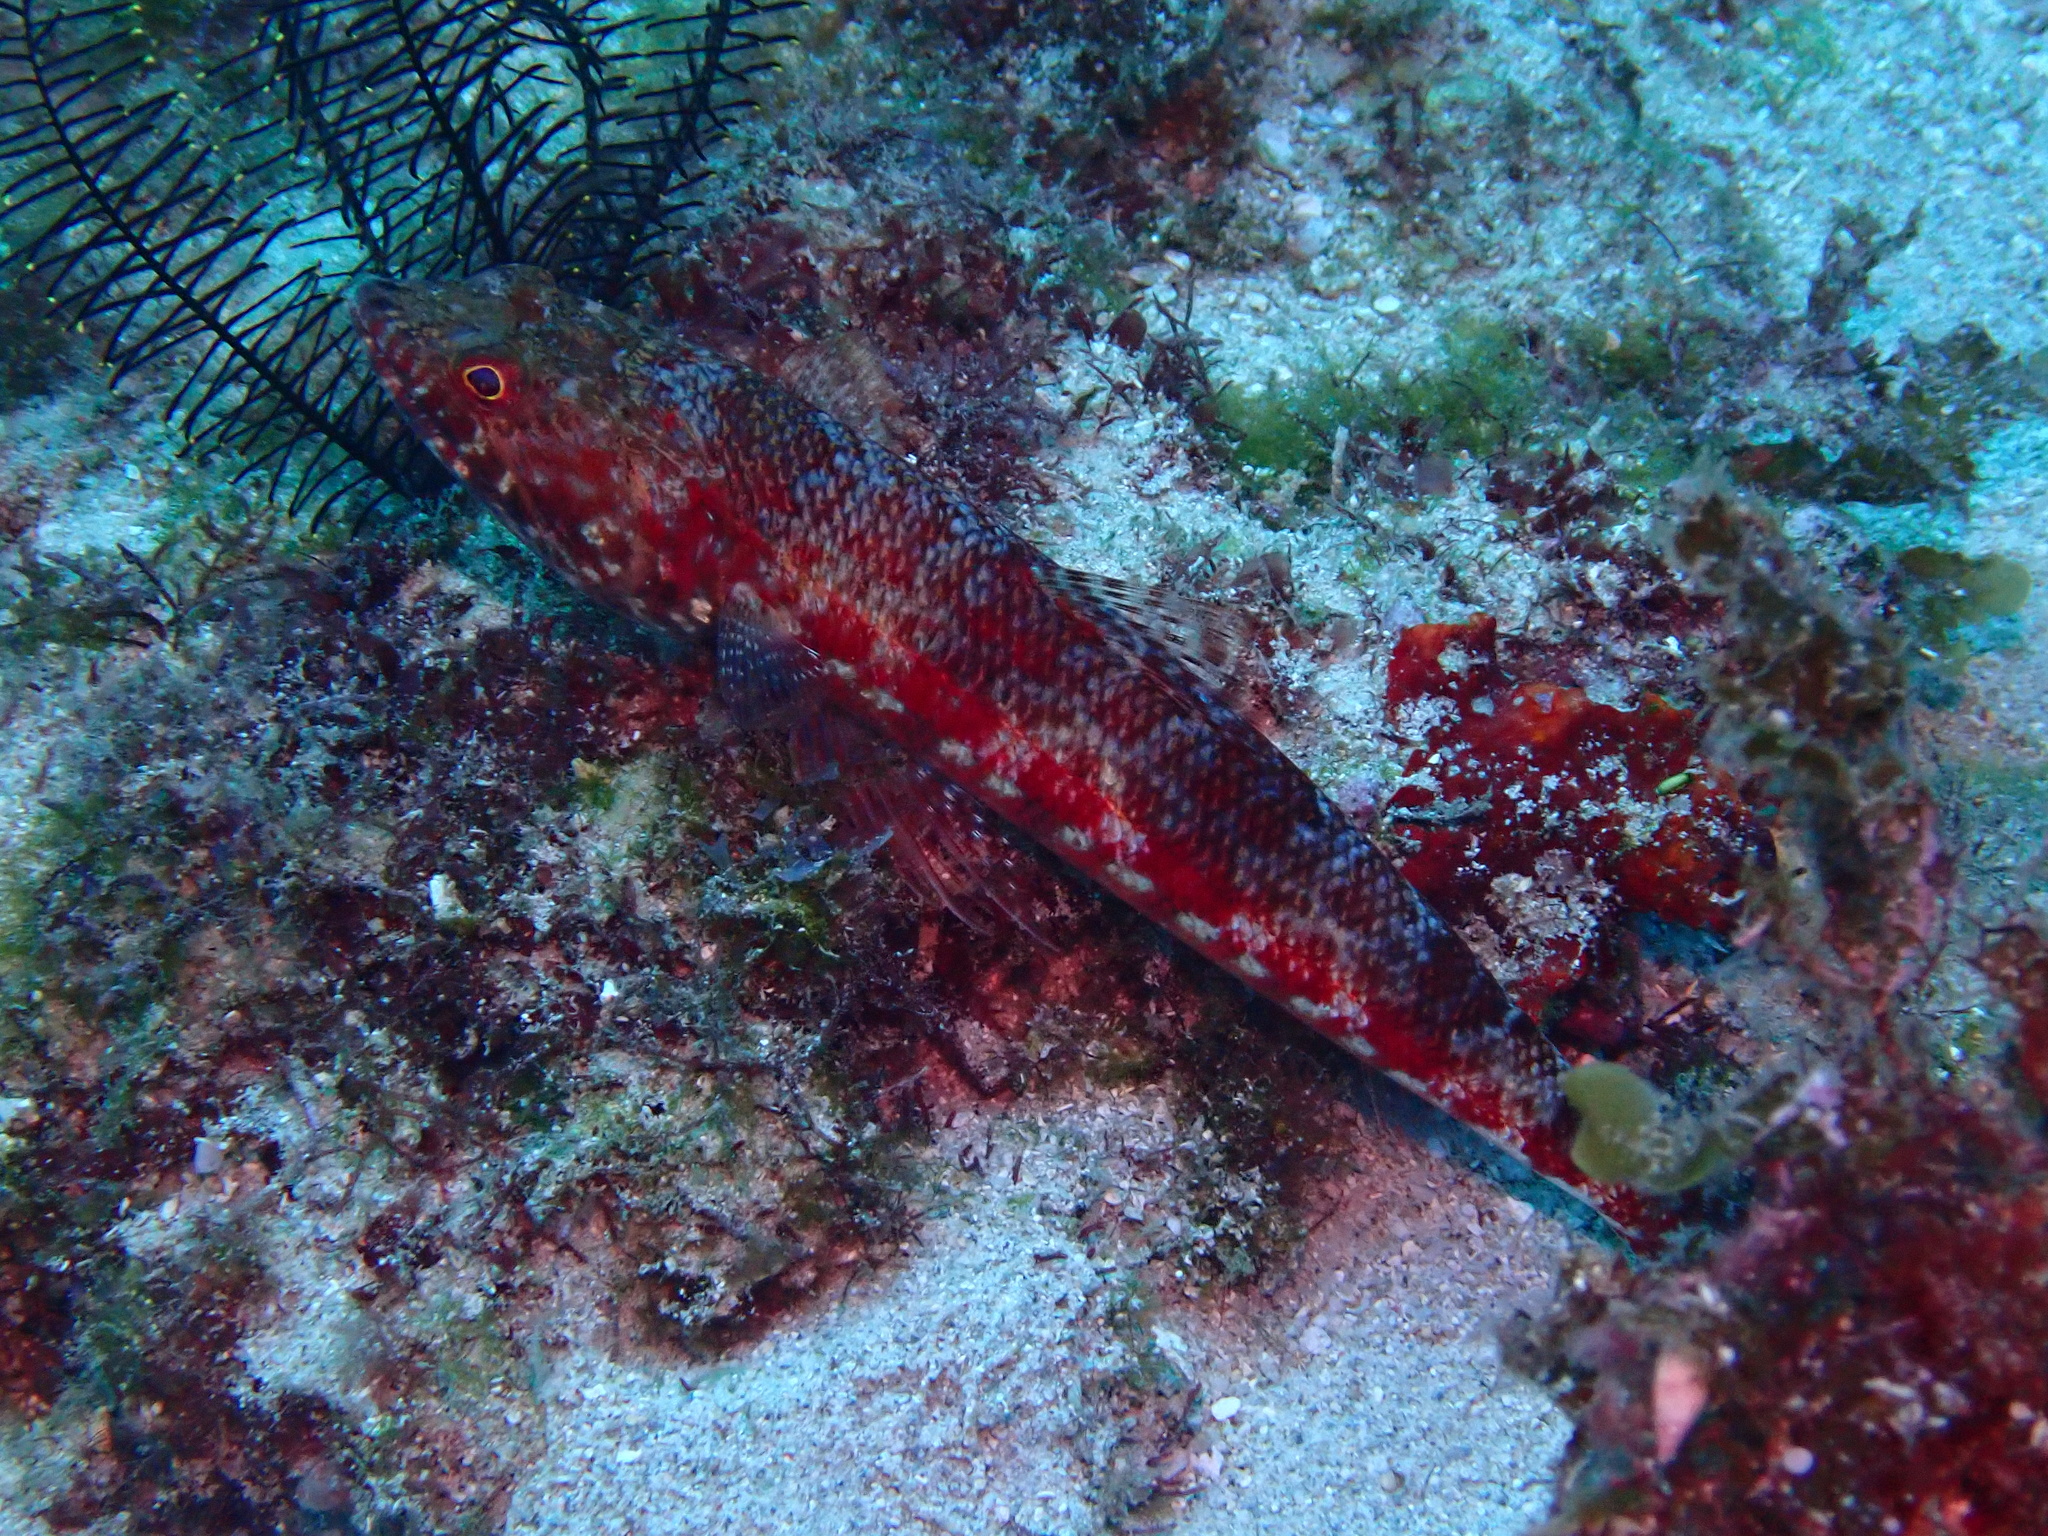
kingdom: Animalia
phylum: Chordata
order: Aulopiformes
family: Synodontidae
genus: Synodus
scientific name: Synodus variegatus
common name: Variegated lizardfish
